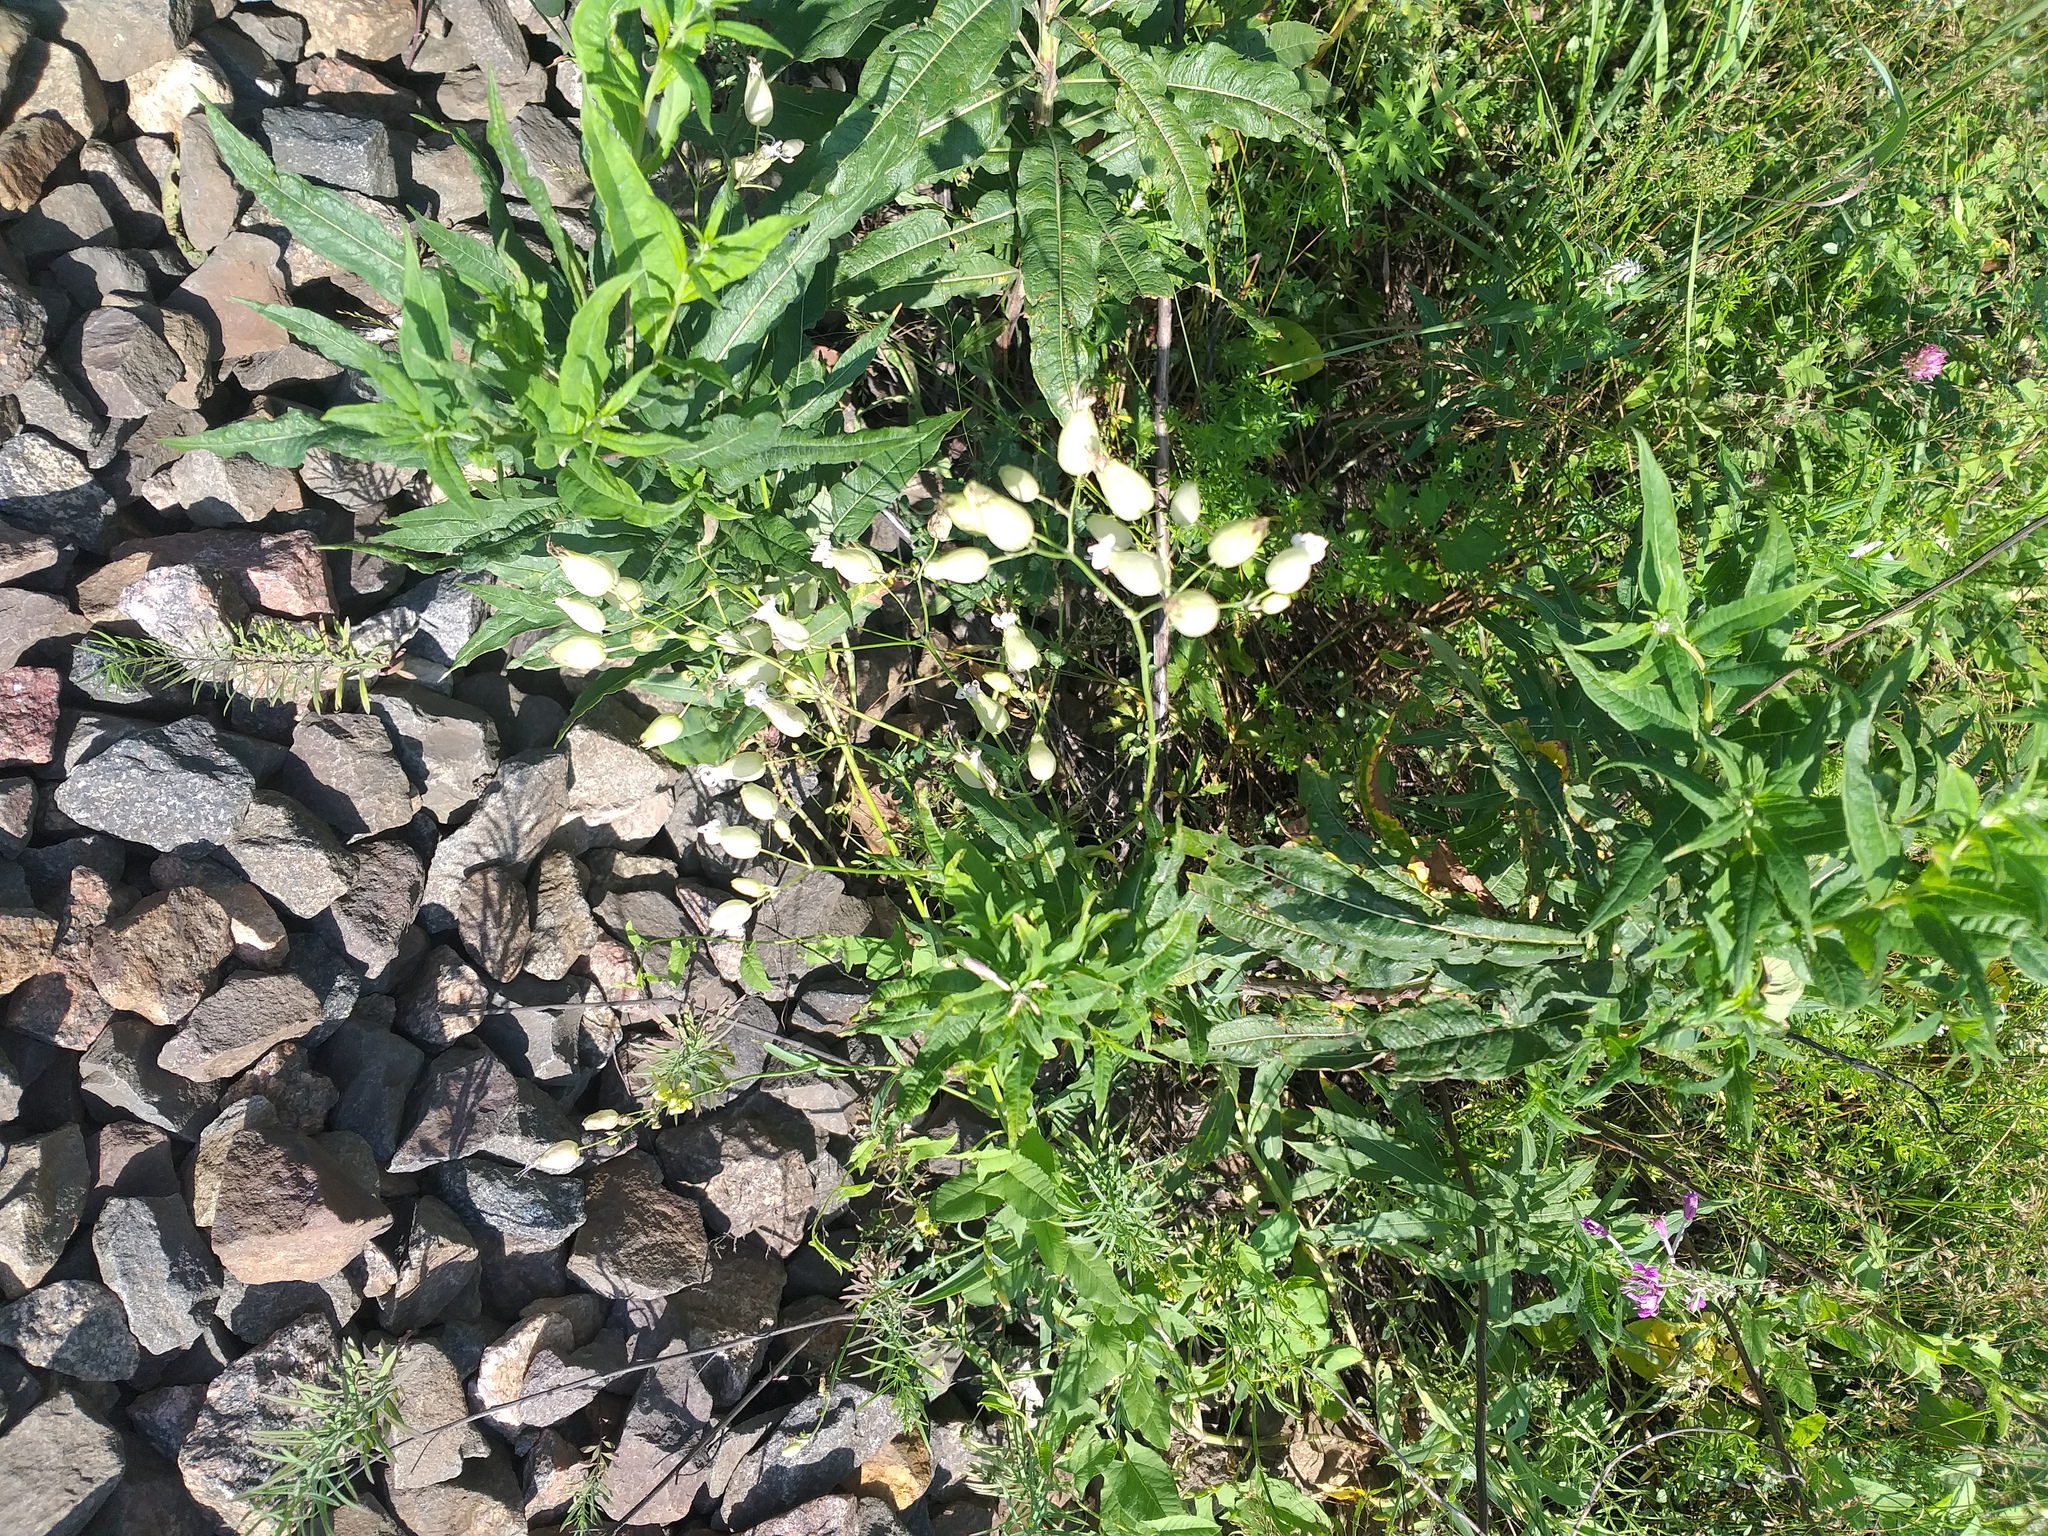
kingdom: Plantae
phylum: Tracheophyta
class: Magnoliopsida
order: Caryophyllales
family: Caryophyllaceae
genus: Silene
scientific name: Silene vulgaris
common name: Bladder campion
